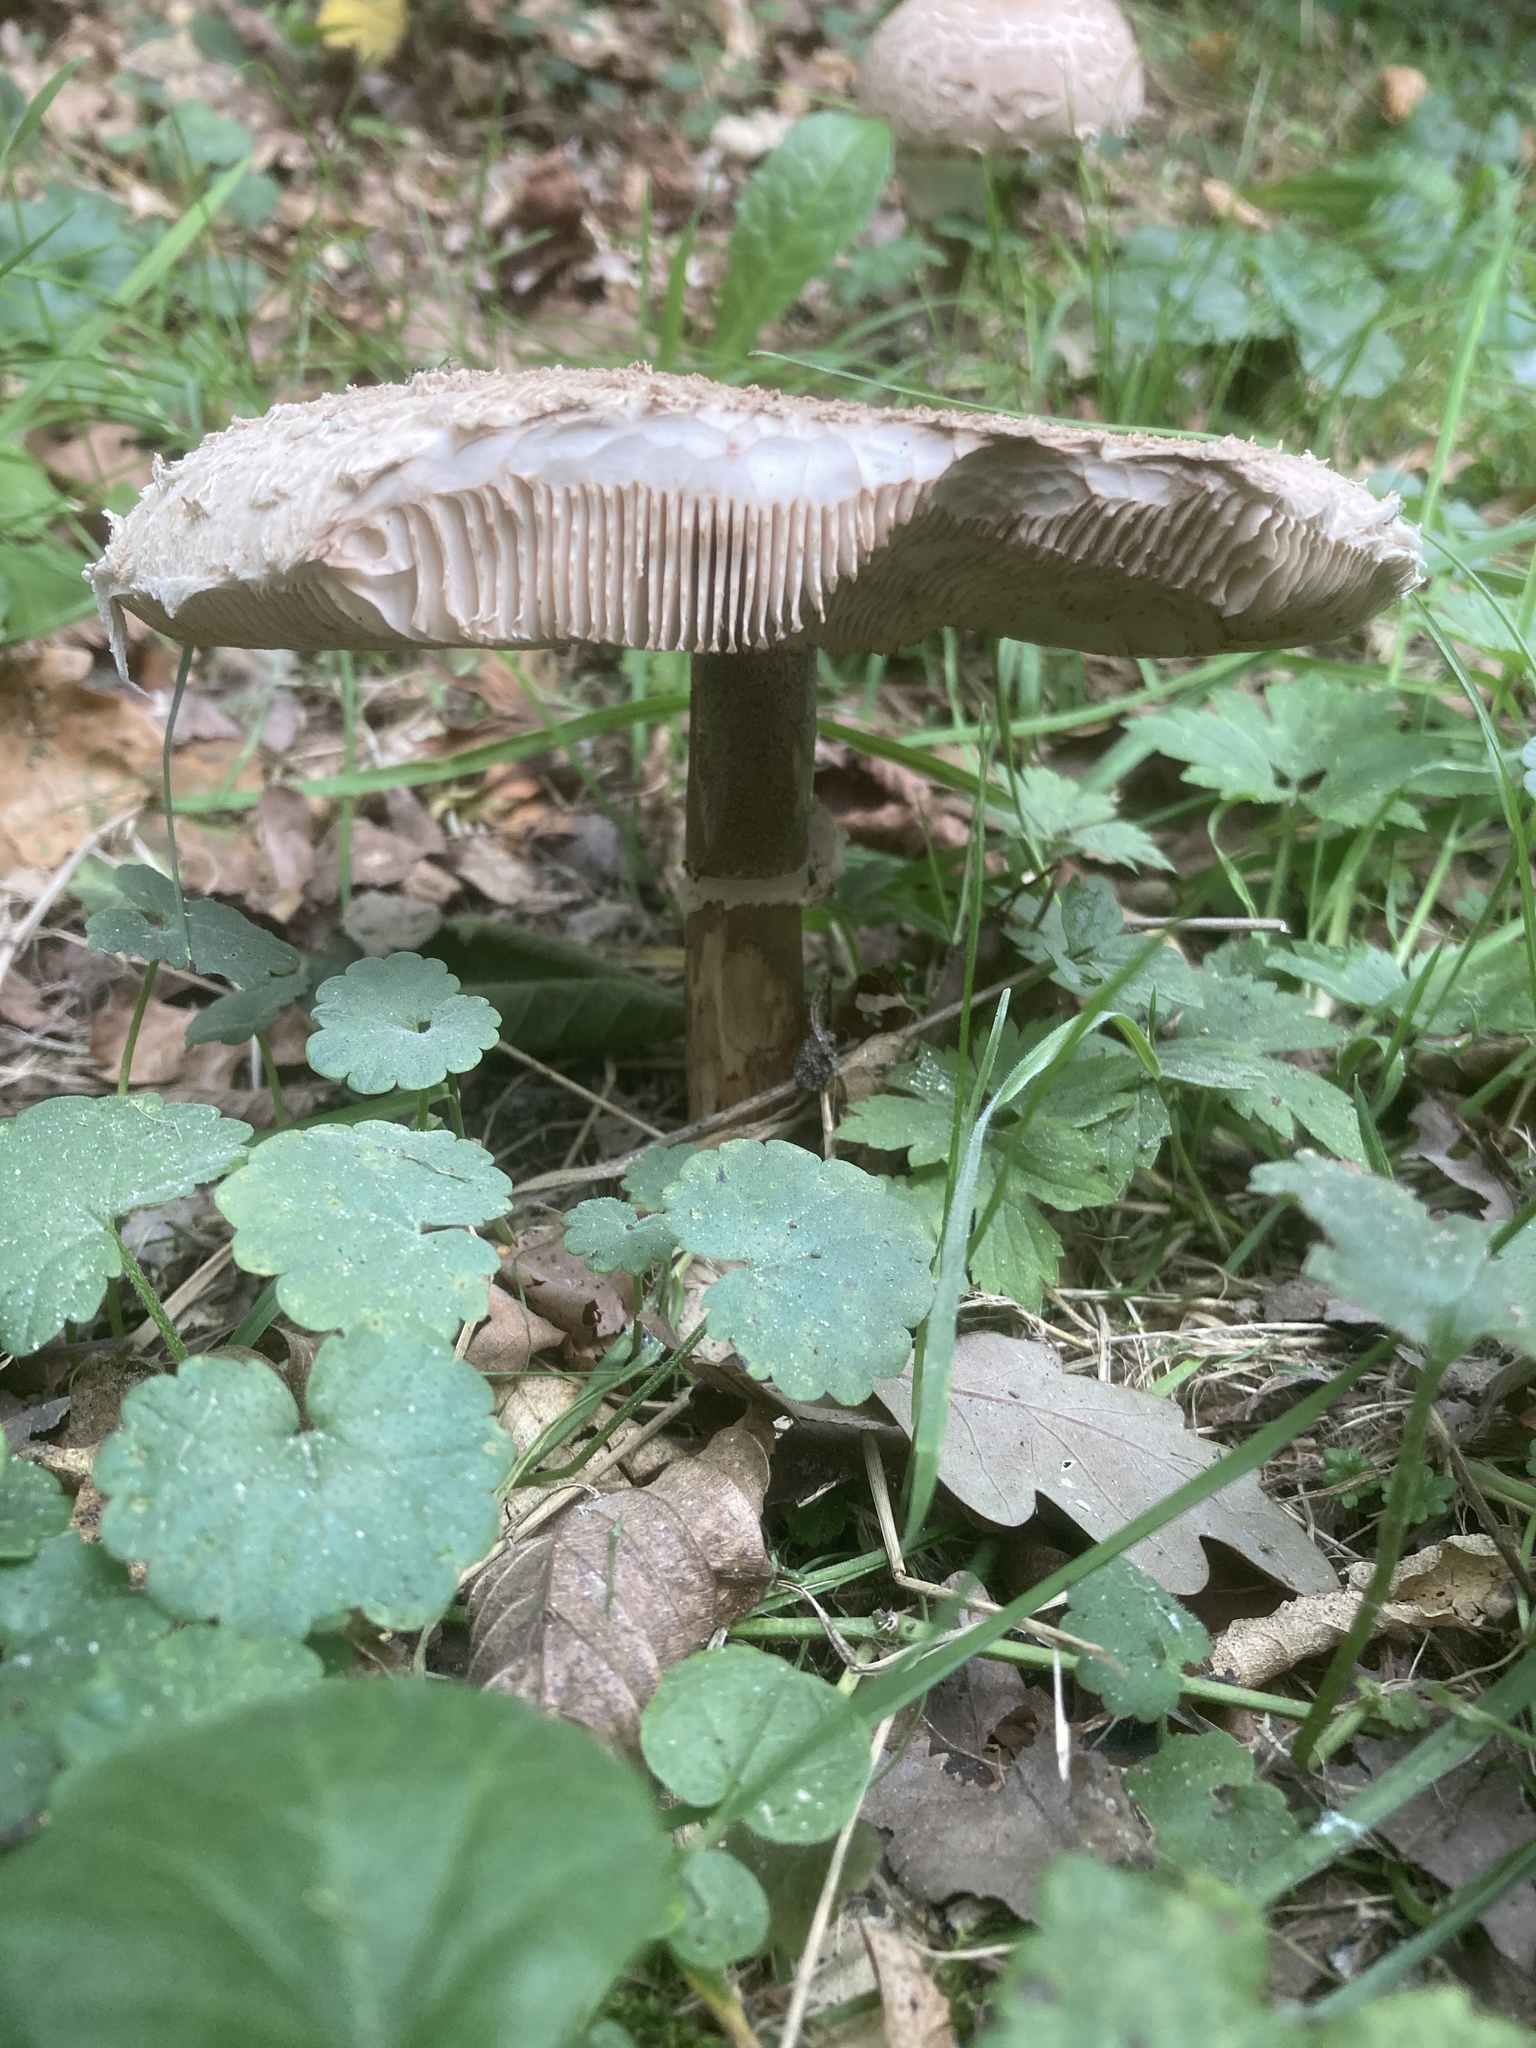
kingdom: Fungi
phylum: Basidiomycota
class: Agaricomycetes
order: Agaricales
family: Agaricaceae
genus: Macrolepiota
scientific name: Macrolepiota procera
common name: Parasol
